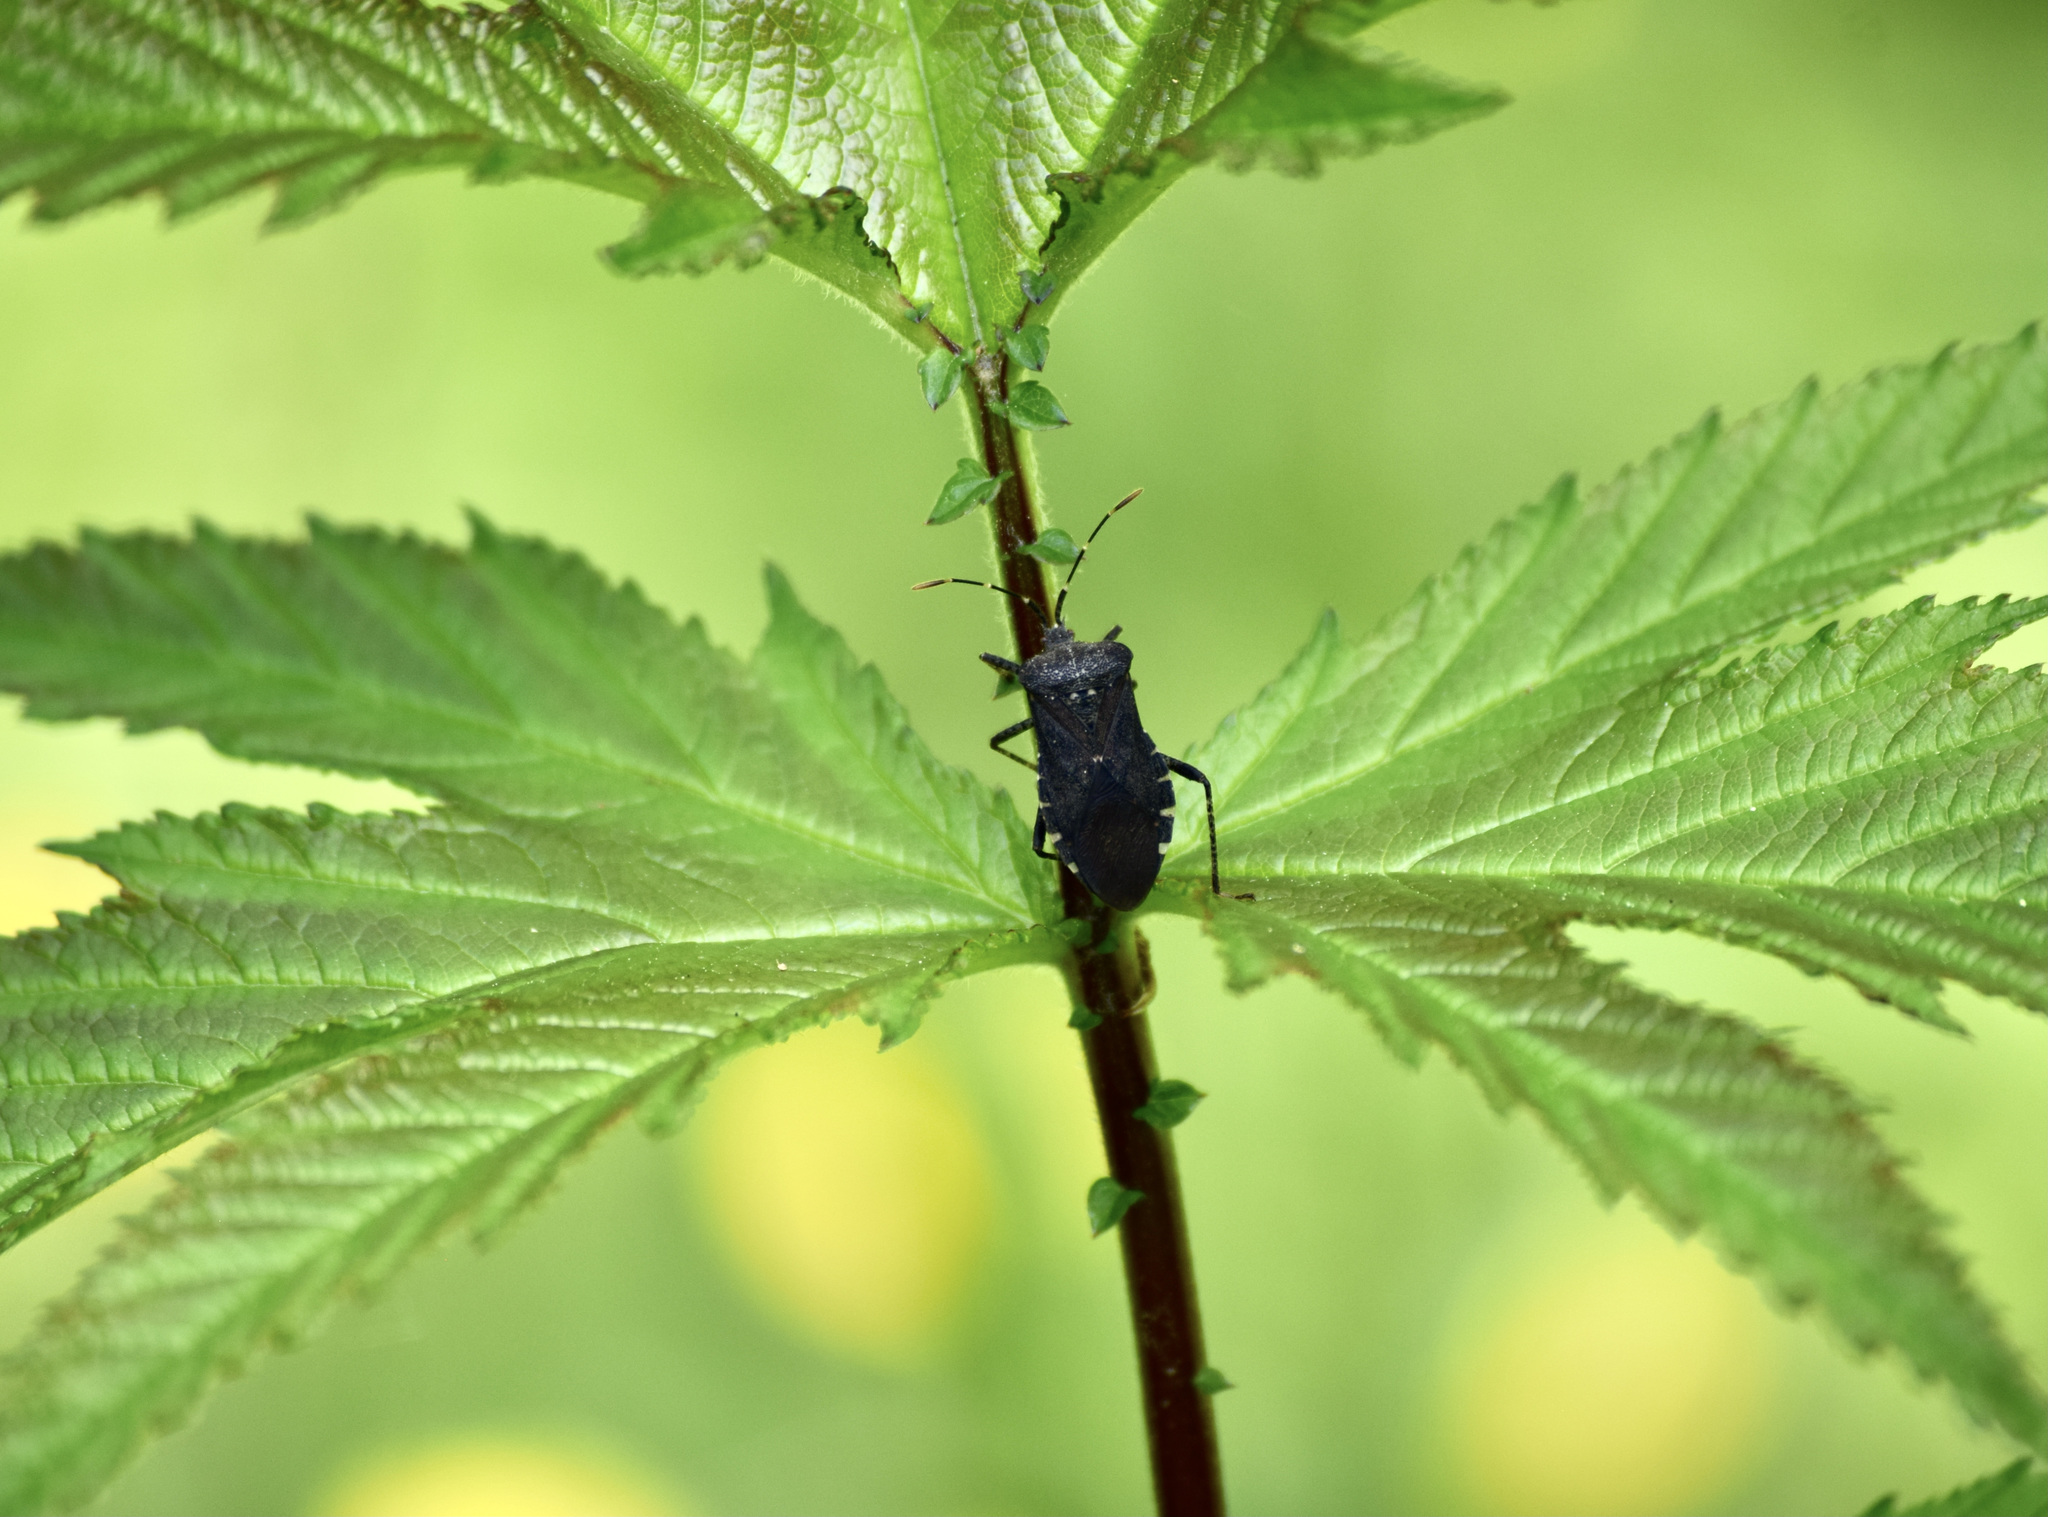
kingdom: Animalia
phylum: Arthropoda
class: Insecta
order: Hemiptera
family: Coreidae
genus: Anasa
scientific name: Anasa armigera
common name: Horned squash bug
